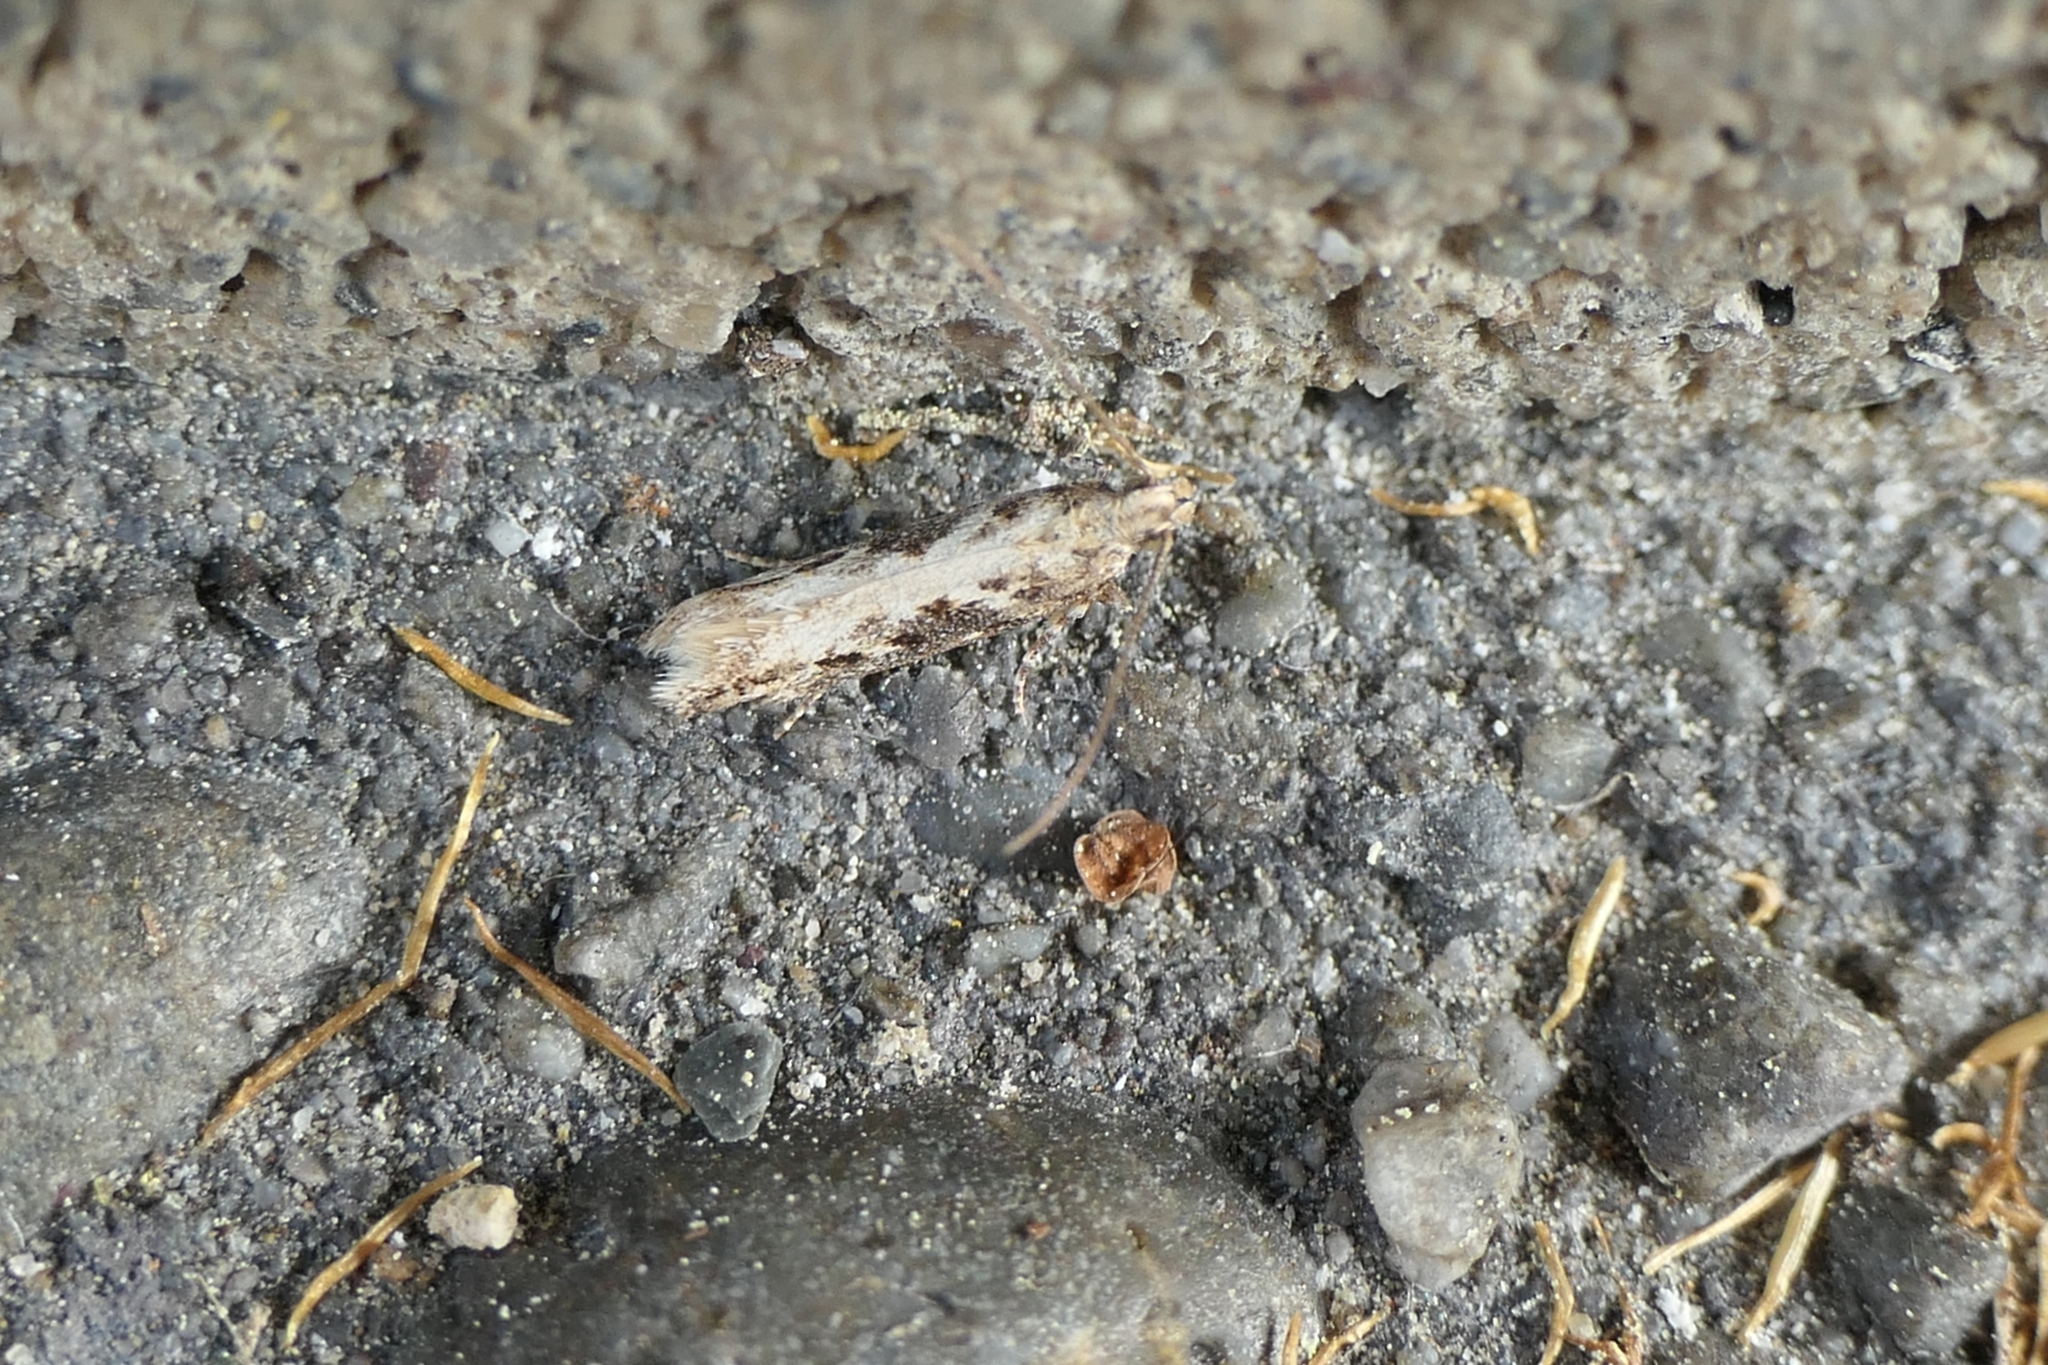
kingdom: Animalia
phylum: Arthropoda
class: Insecta
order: Lepidoptera
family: Gelechiidae
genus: Kiwaia
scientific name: Kiwaia brontophora
